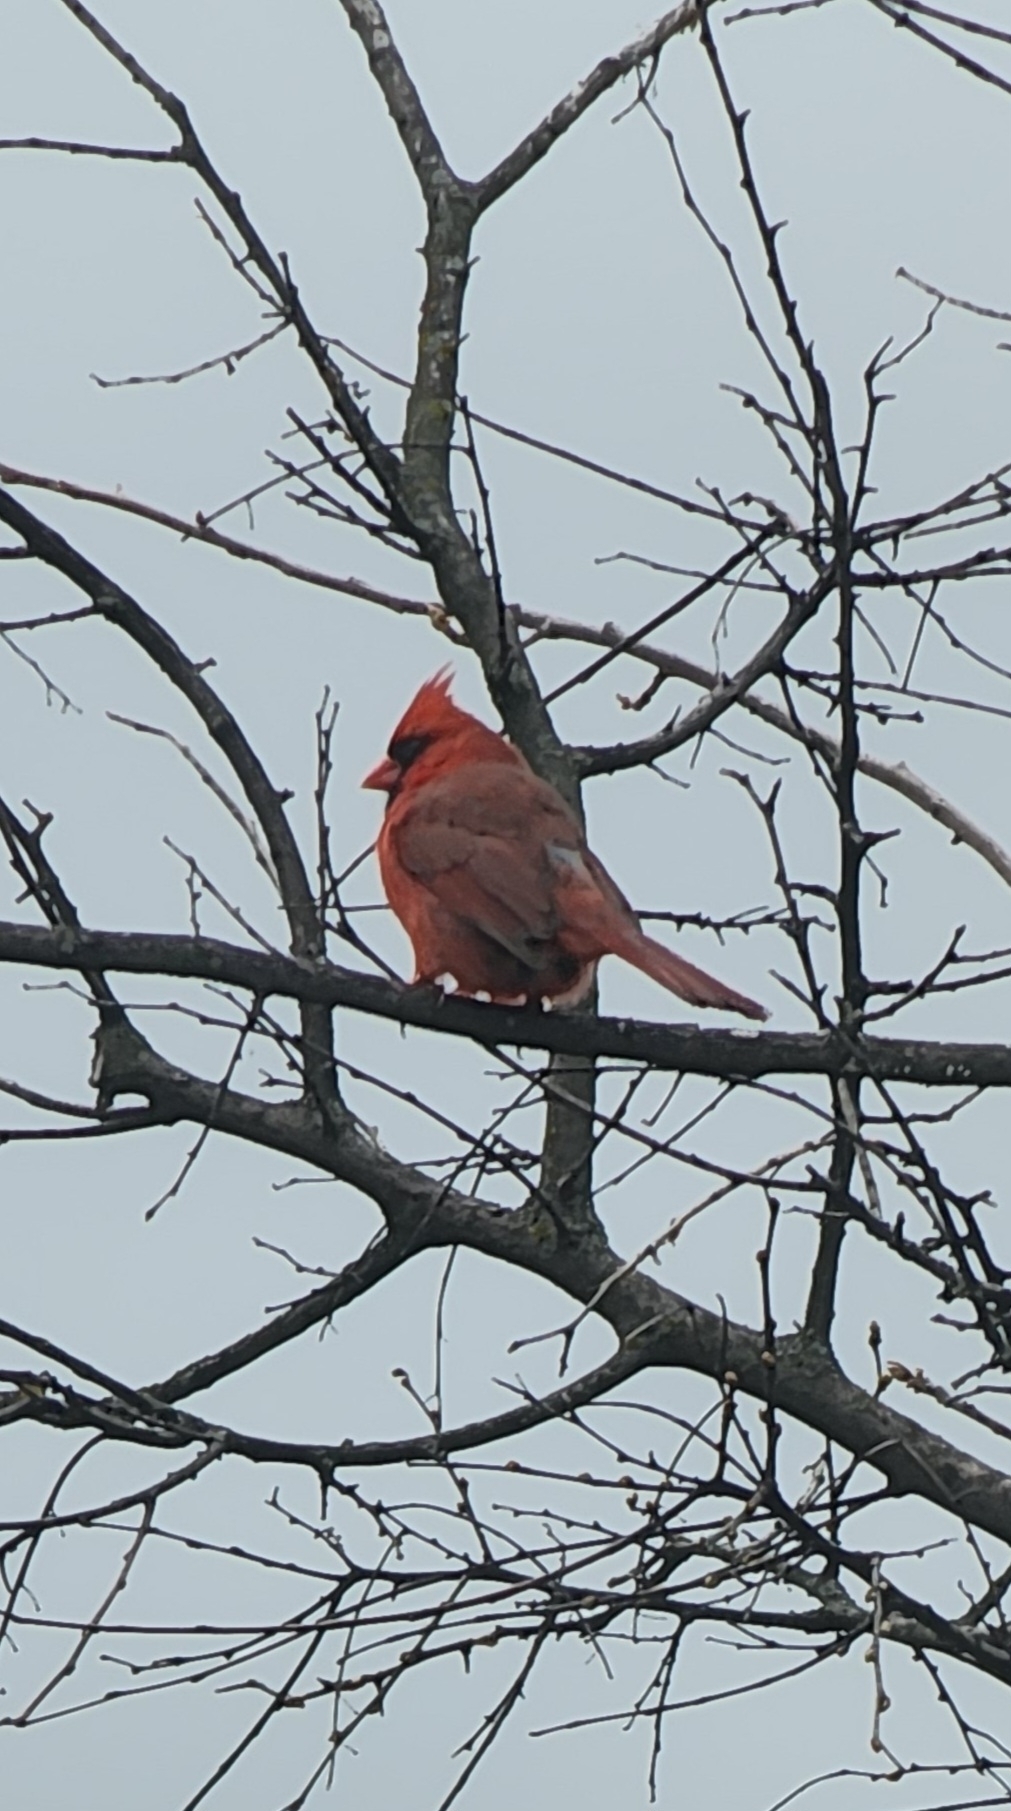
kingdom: Animalia
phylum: Chordata
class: Aves
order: Passeriformes
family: Cardinalidae
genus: Cardinalis
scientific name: Cardinalis cardinalis
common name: Northern cardinal
